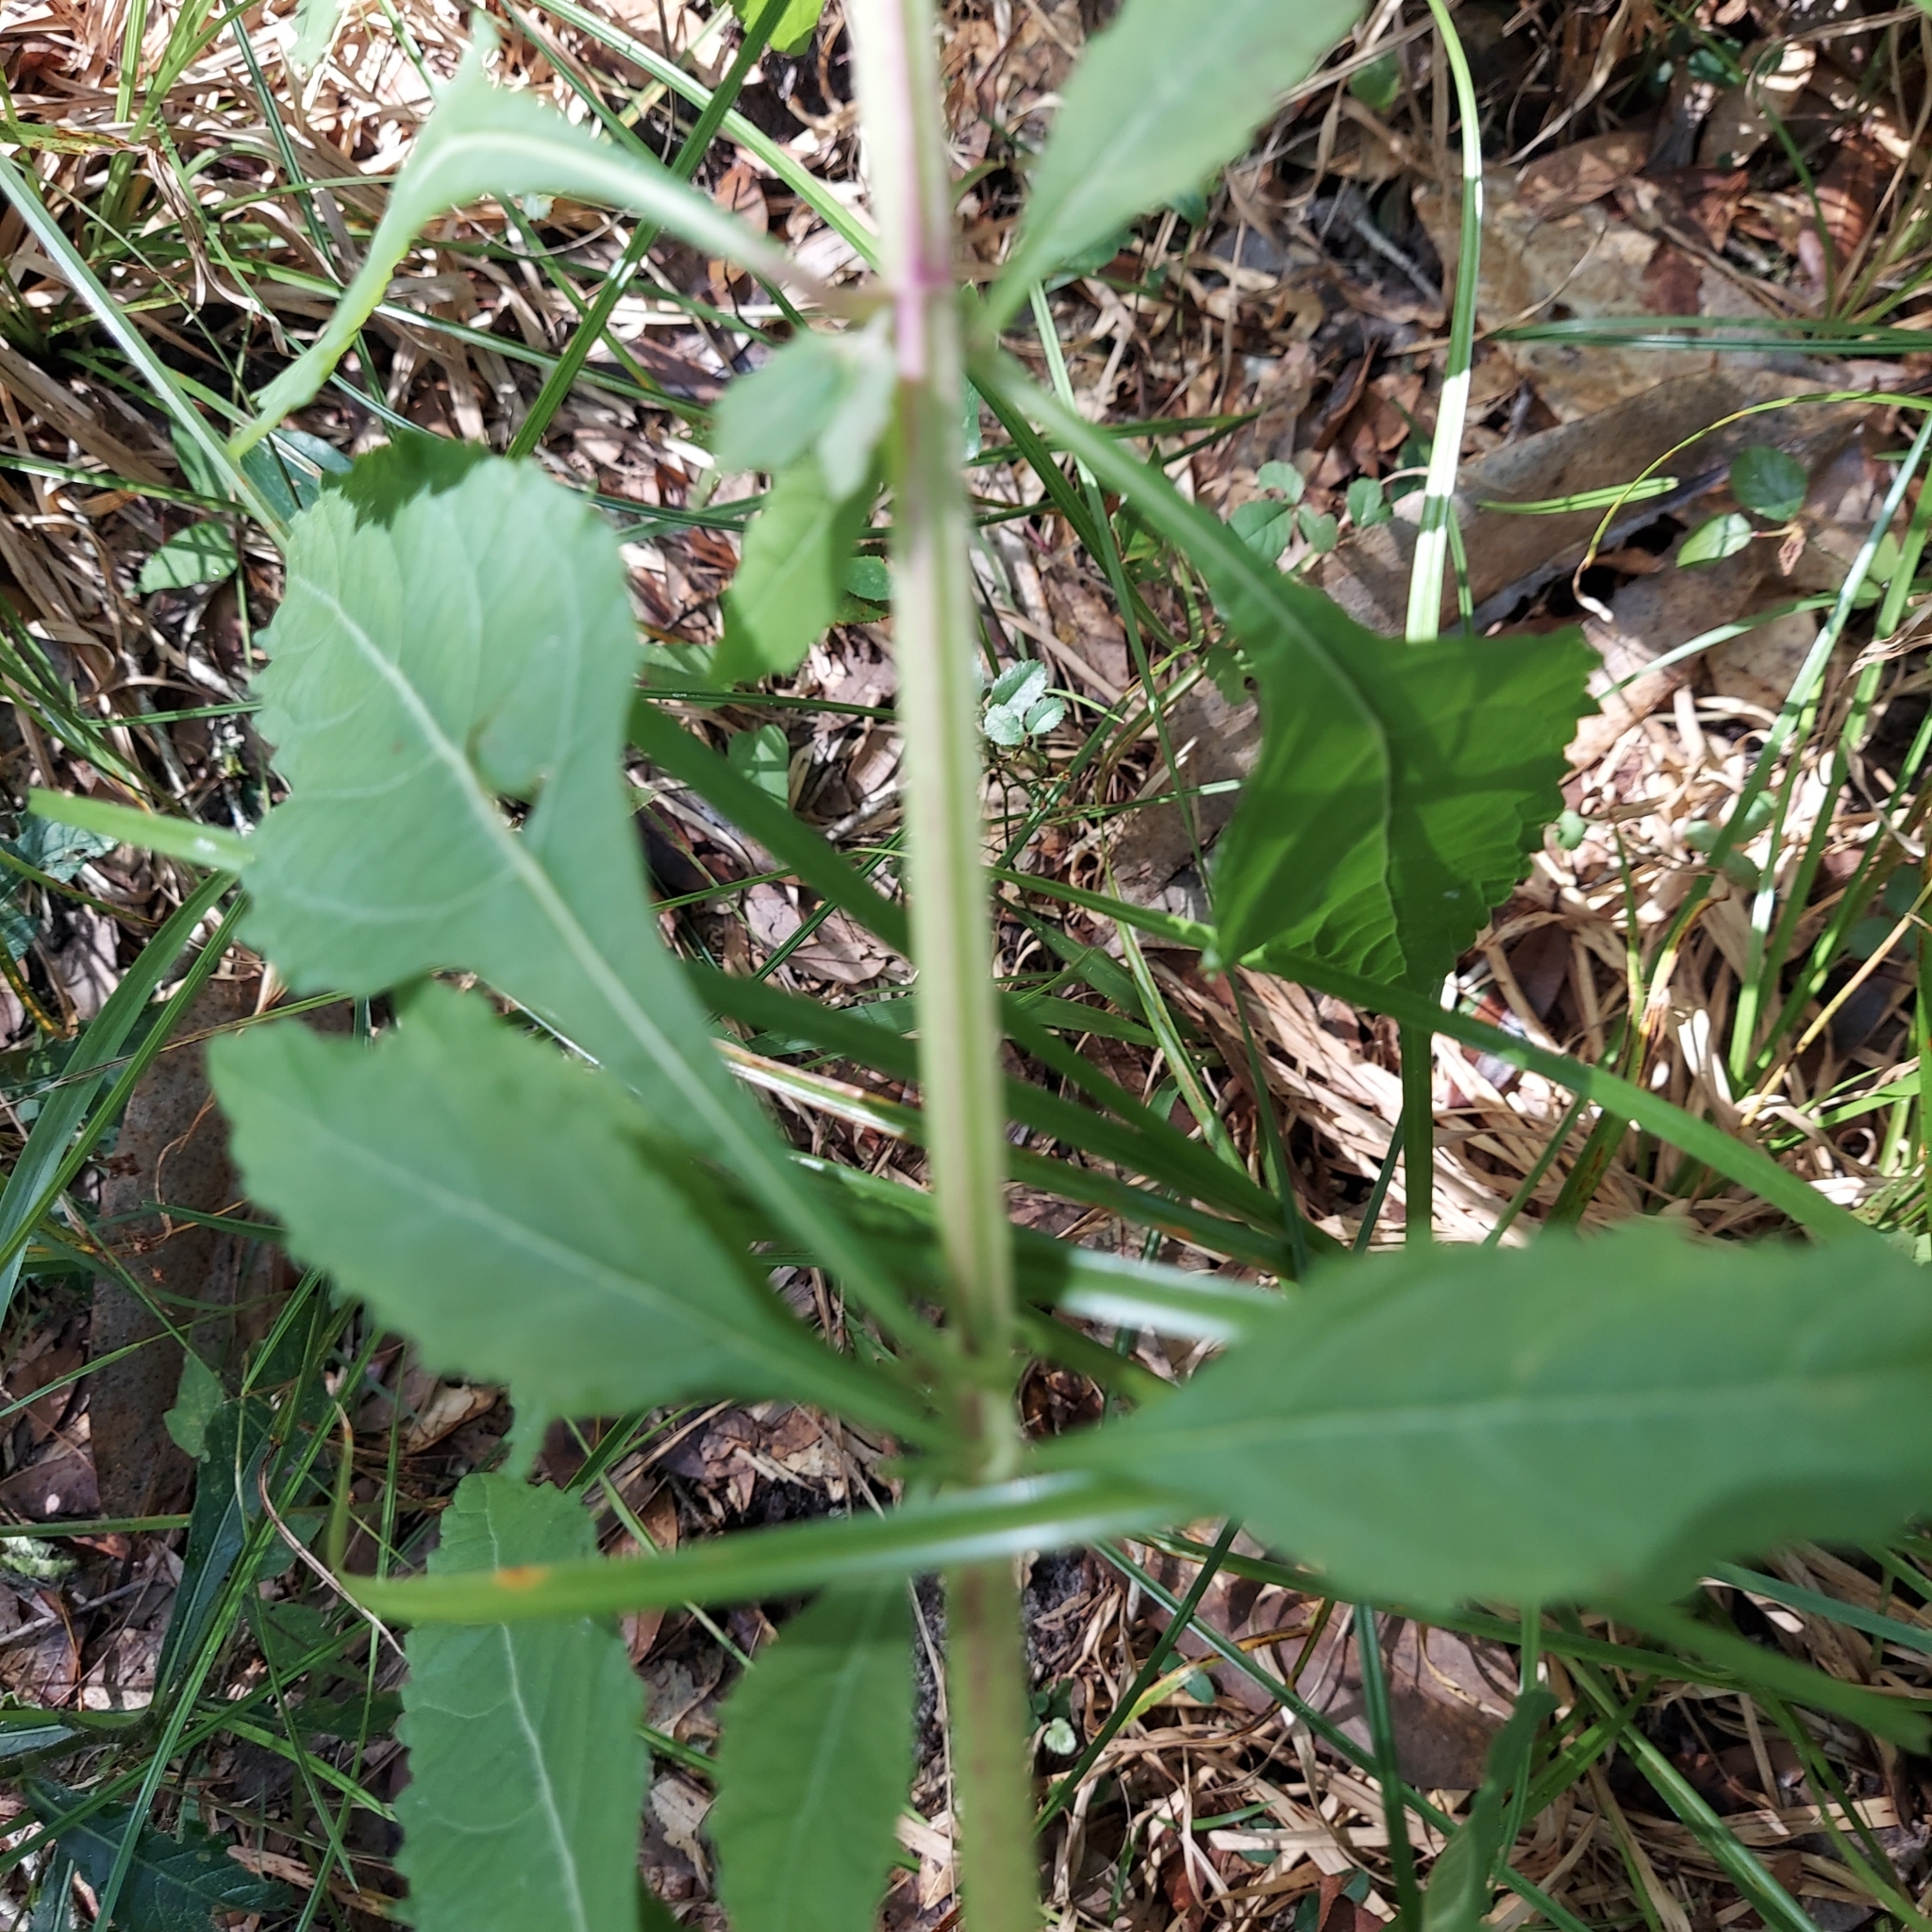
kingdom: Plantae
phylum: Tracheophyta
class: Magnoliopsida
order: Lamiales
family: Lamiaceae
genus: Hyptis
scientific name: Hyptis alata
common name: Cluster bush-mint
